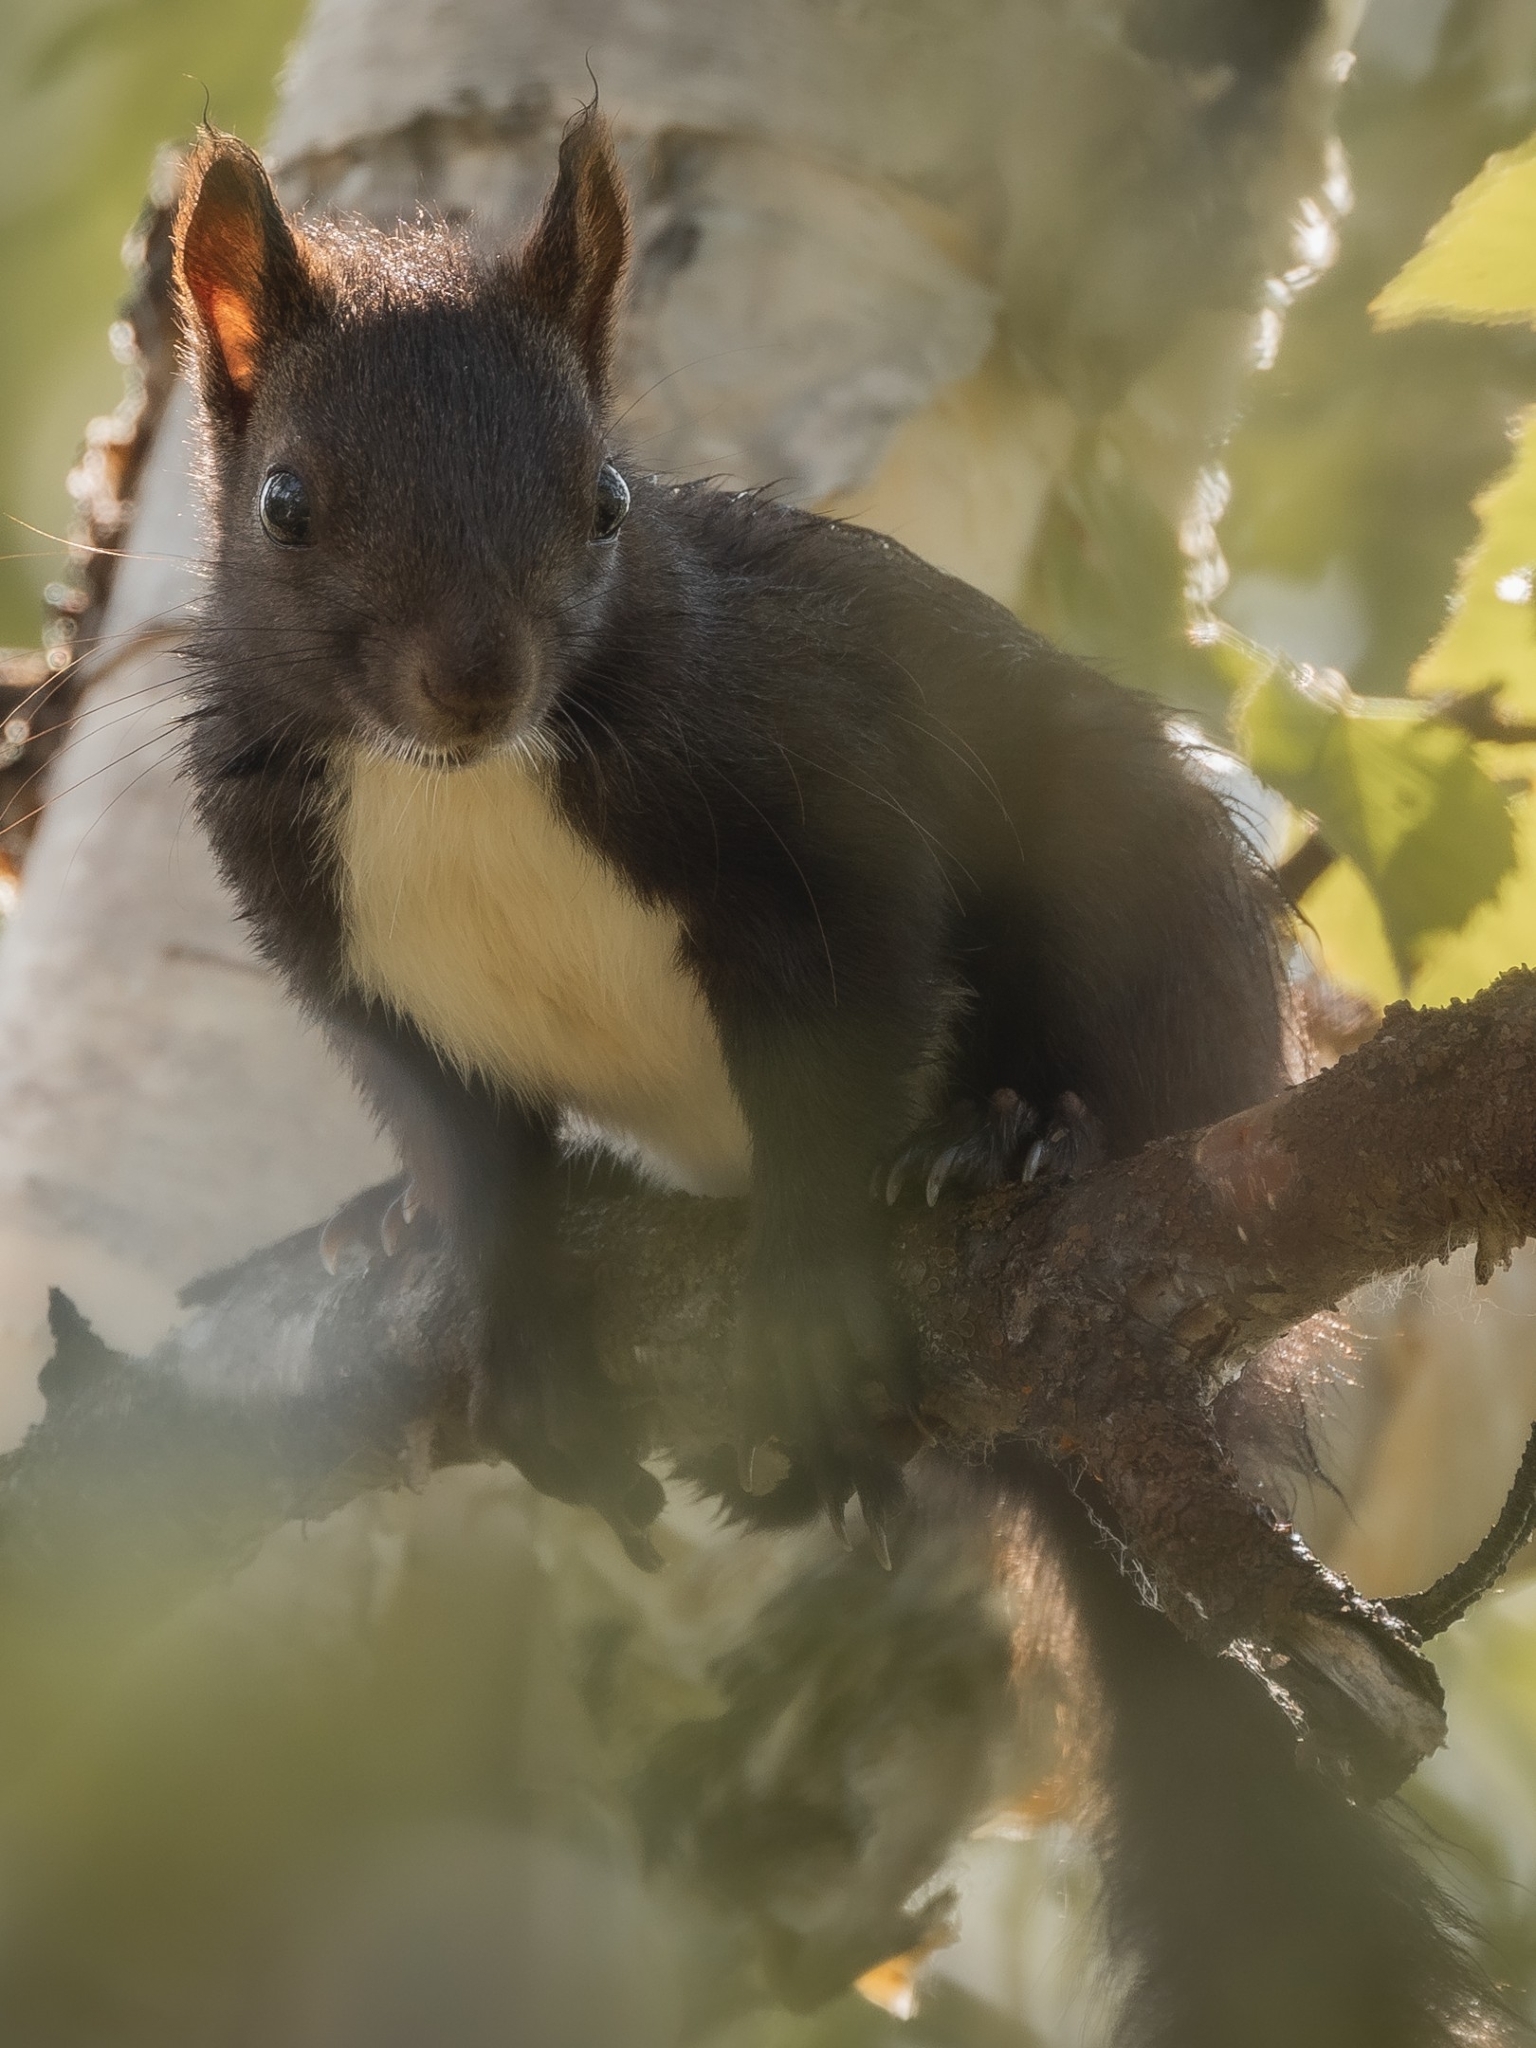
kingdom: Animalia
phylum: Chordata
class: Mammalia
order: Rodentia
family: Sciuridae
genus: Sciurus
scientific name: Sciurus vulgaris
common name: Eurasian red squirrel
